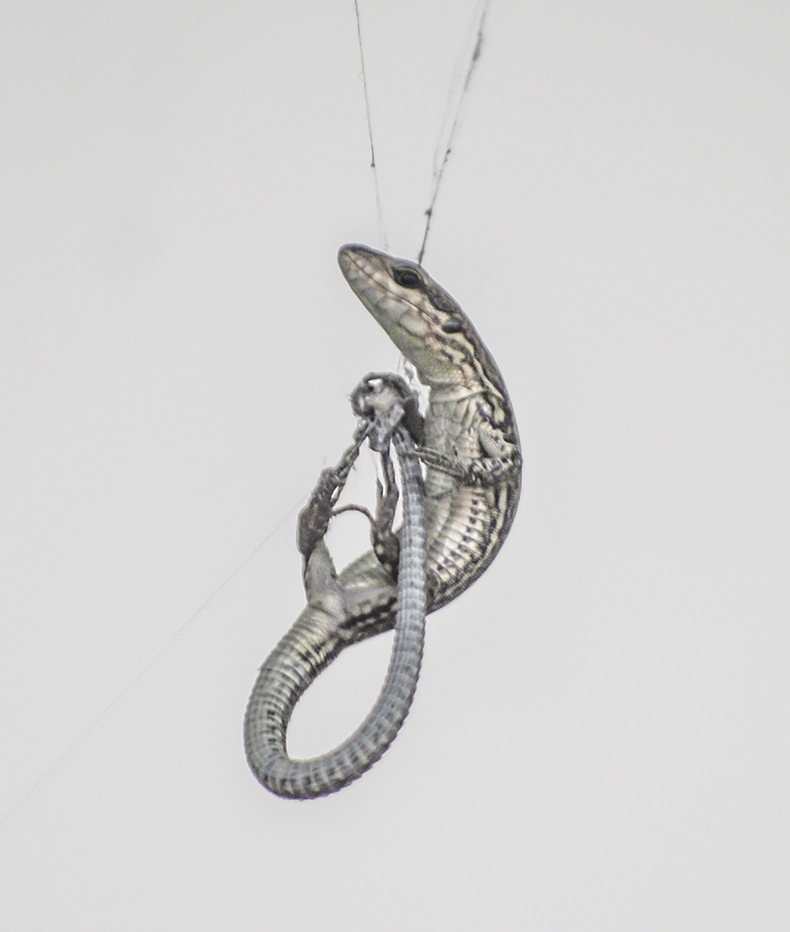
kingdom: Animalia
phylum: Chordata
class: Squamata
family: Lacertidae
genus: Podarcis
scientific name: Podarcis muralis
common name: Common wall lizard
